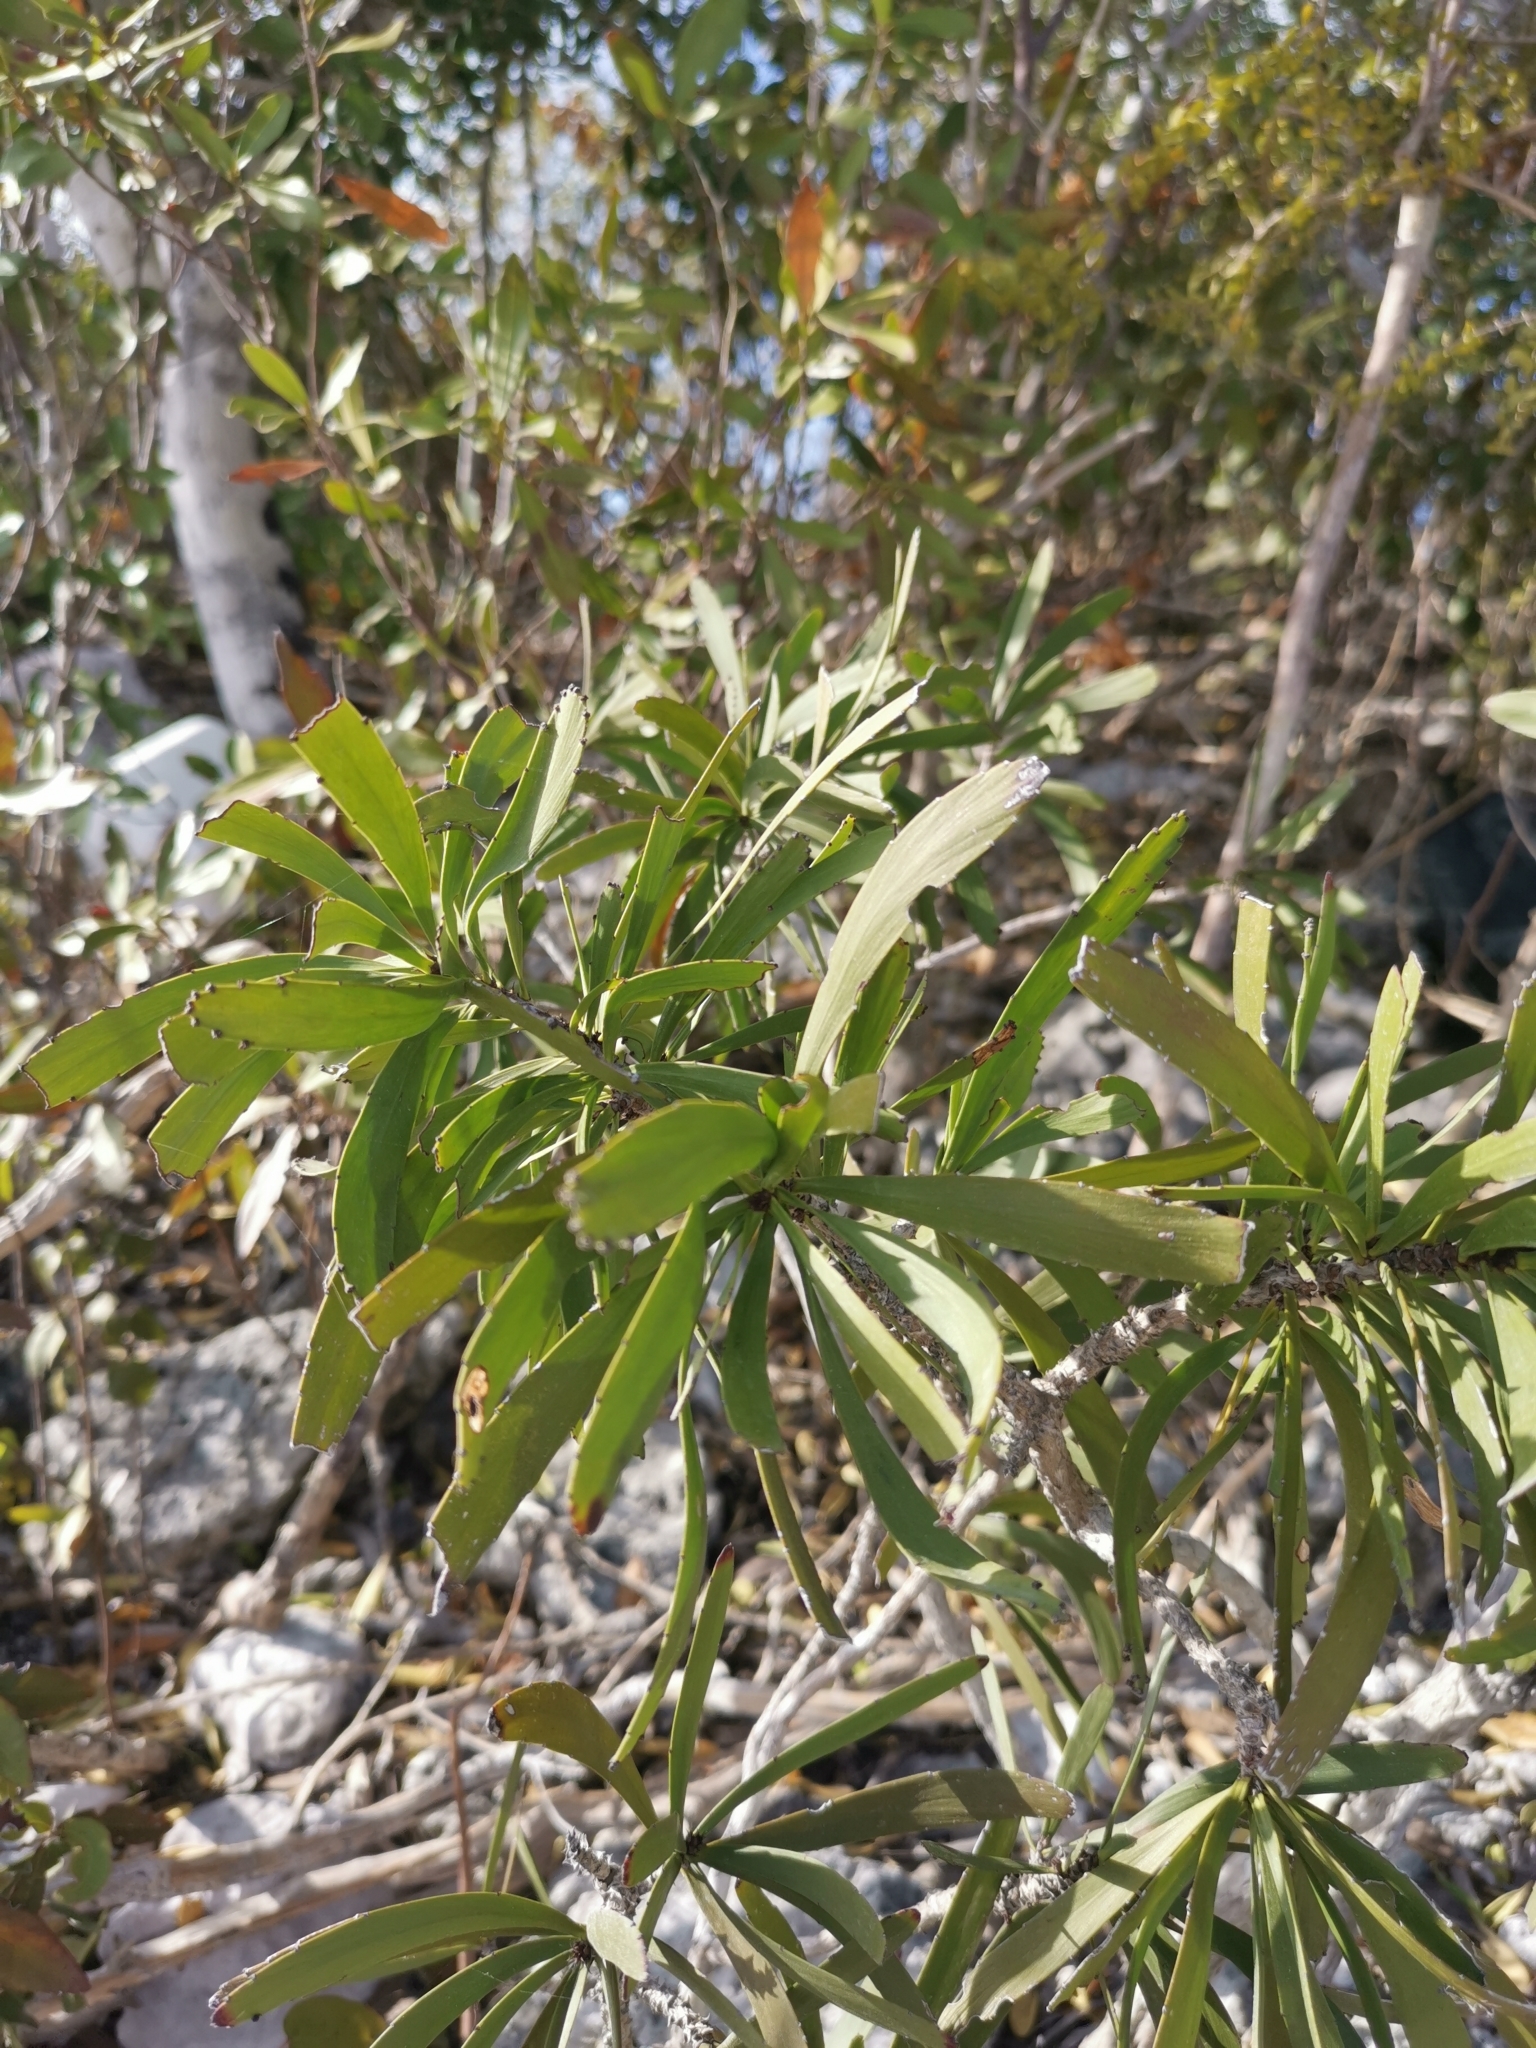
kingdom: Plantae
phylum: Tracheophyta
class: Magnoliopsida
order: Malpighiales
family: Phyllanthaceae
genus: Phyllanthus
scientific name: Phyllanthus epiphyllanthus
